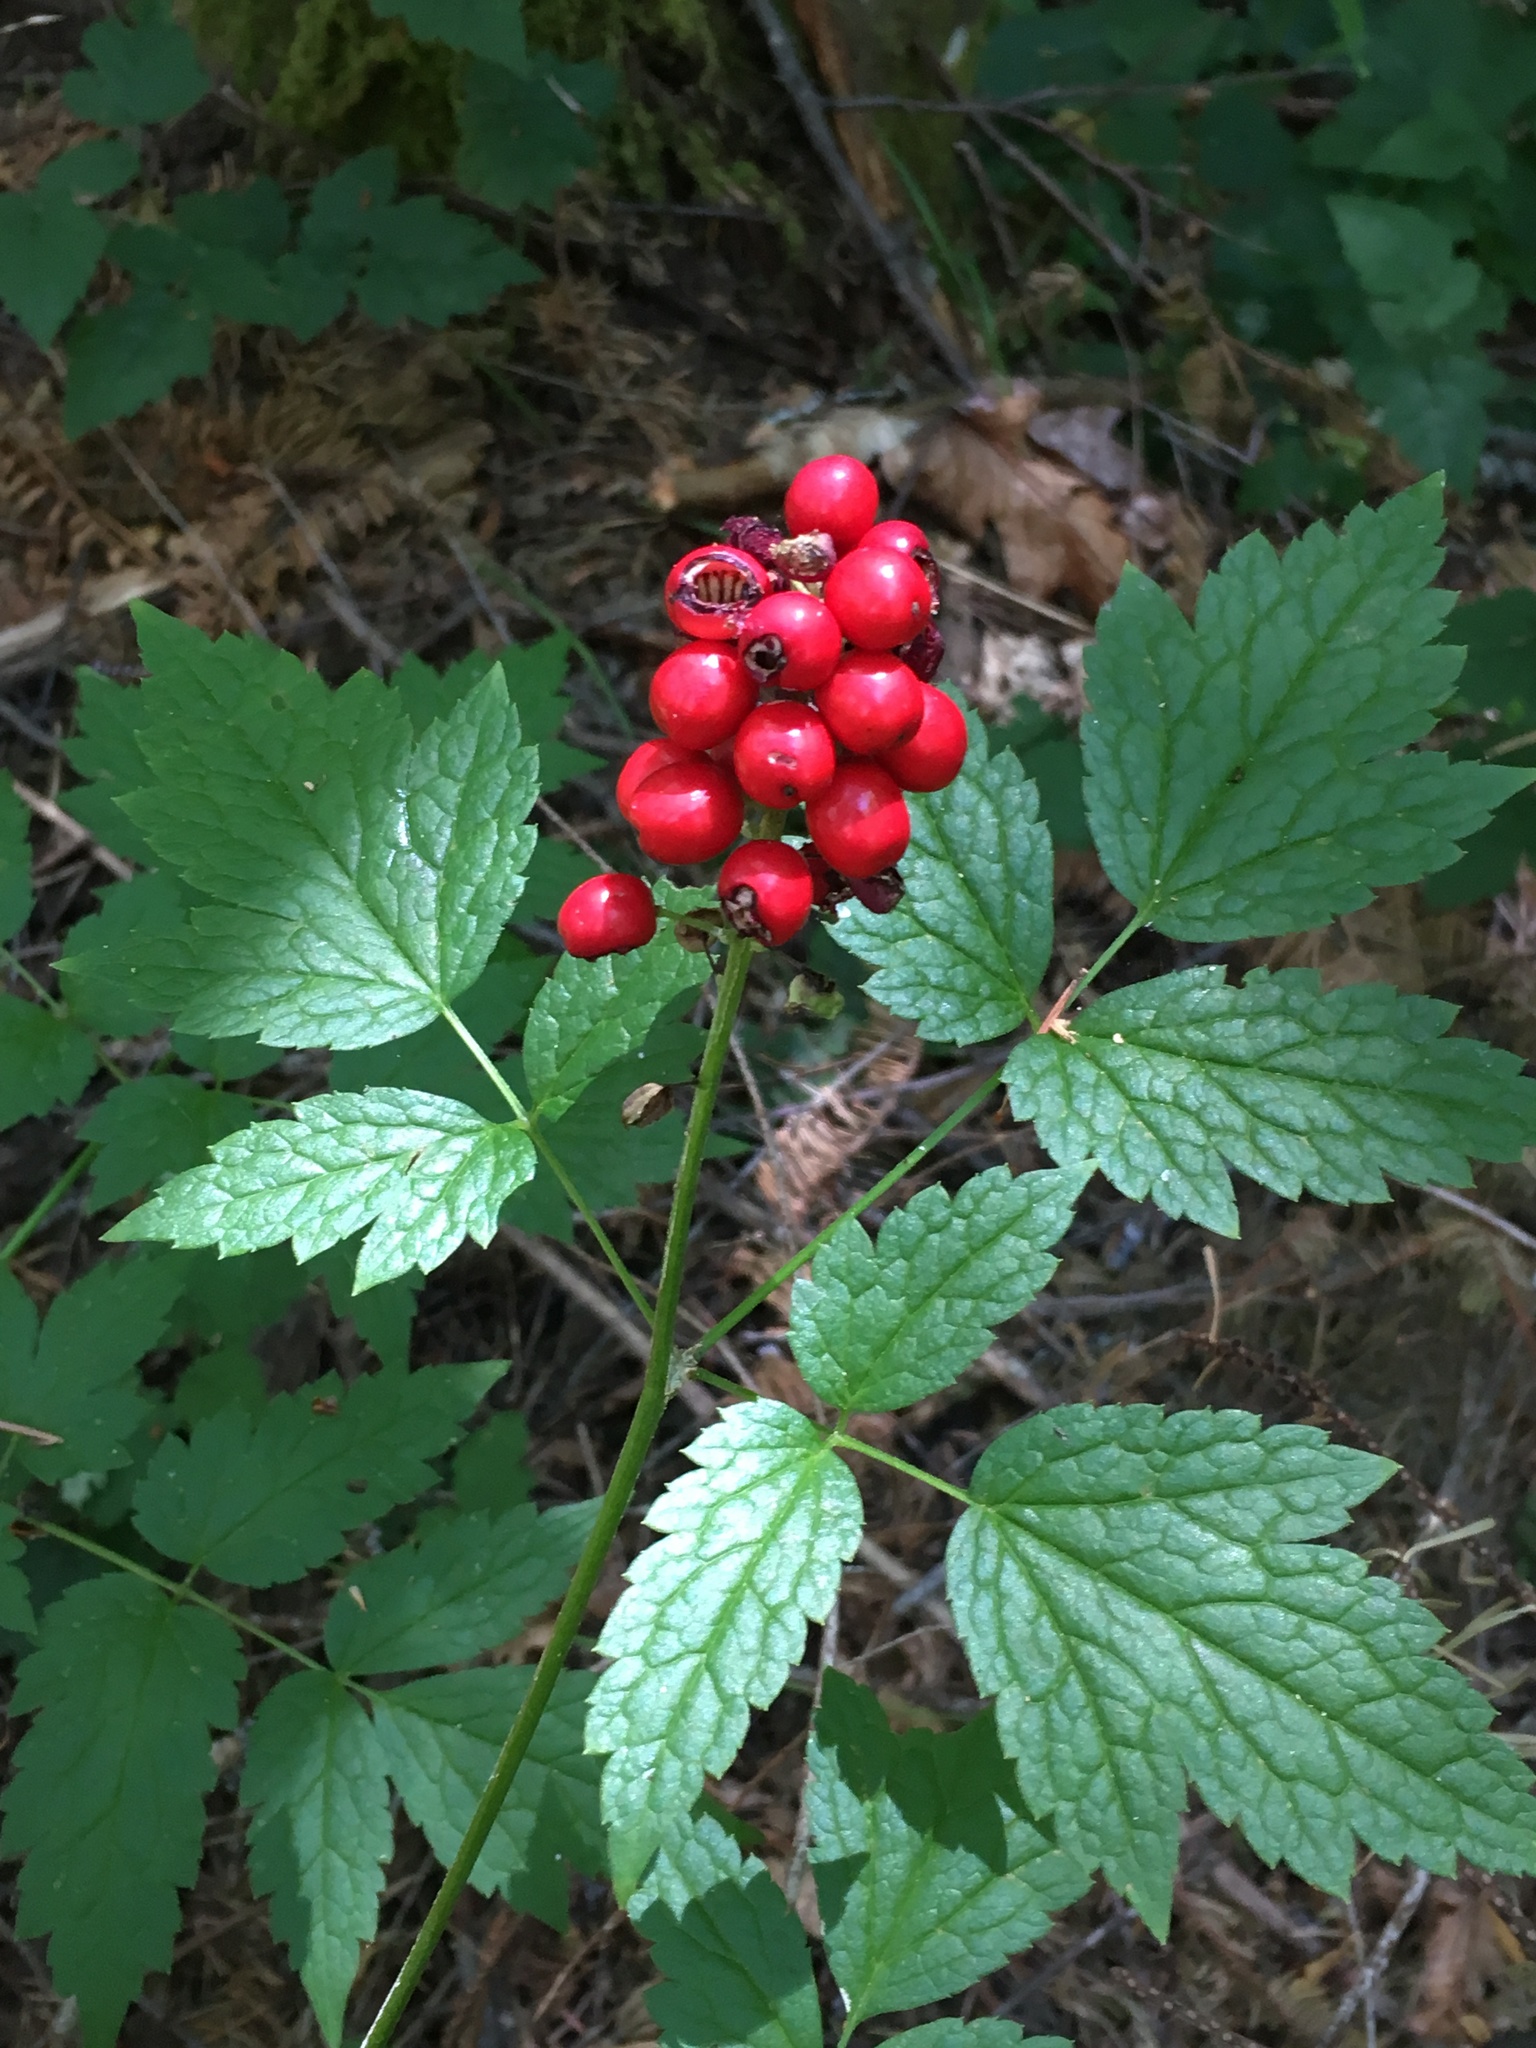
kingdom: Plantae
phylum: Tracheophyta
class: Magnoliopsida
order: Ranunculales
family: Ranunculaceae
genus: Actaea
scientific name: Actaea rubra
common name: Red baneberry
